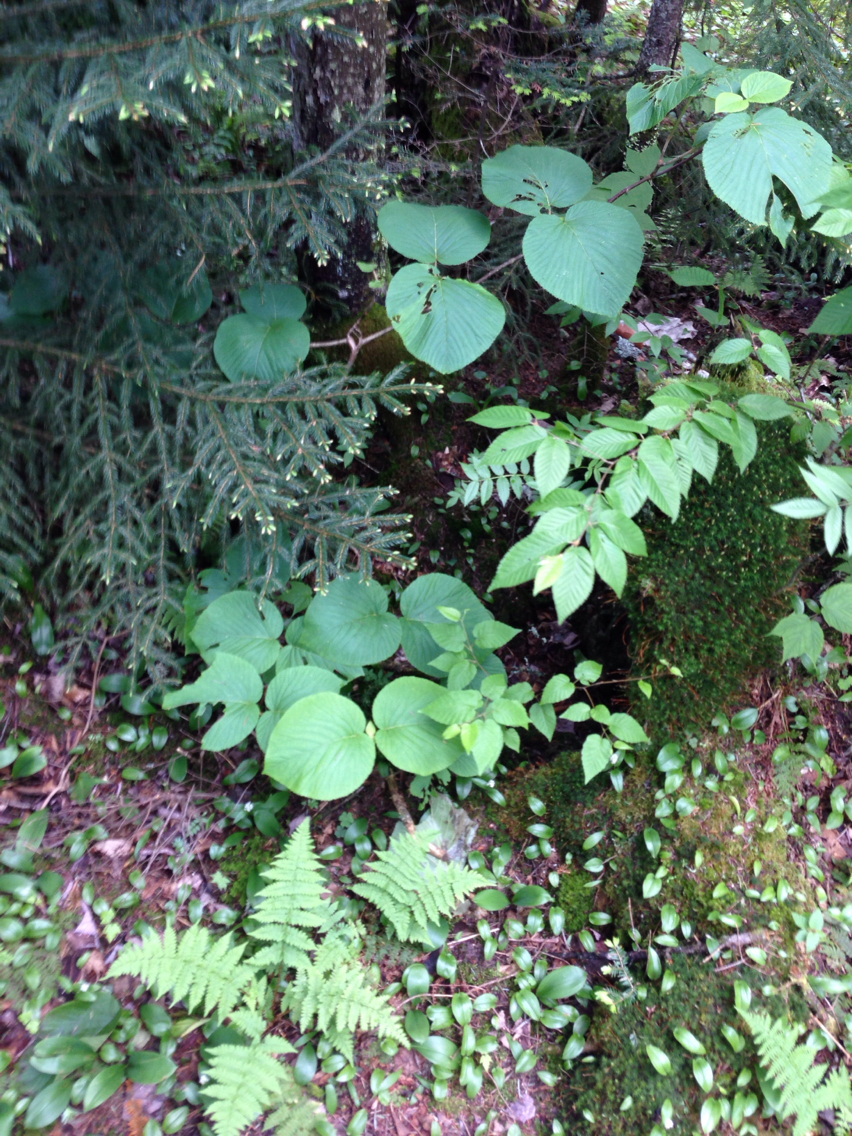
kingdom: Plantae
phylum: Tracheophyta
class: Magnoliopsida
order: Dipsacales
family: Viburnaceae
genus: Viburnum
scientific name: Viburnum lantanoides
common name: Hobblebush
